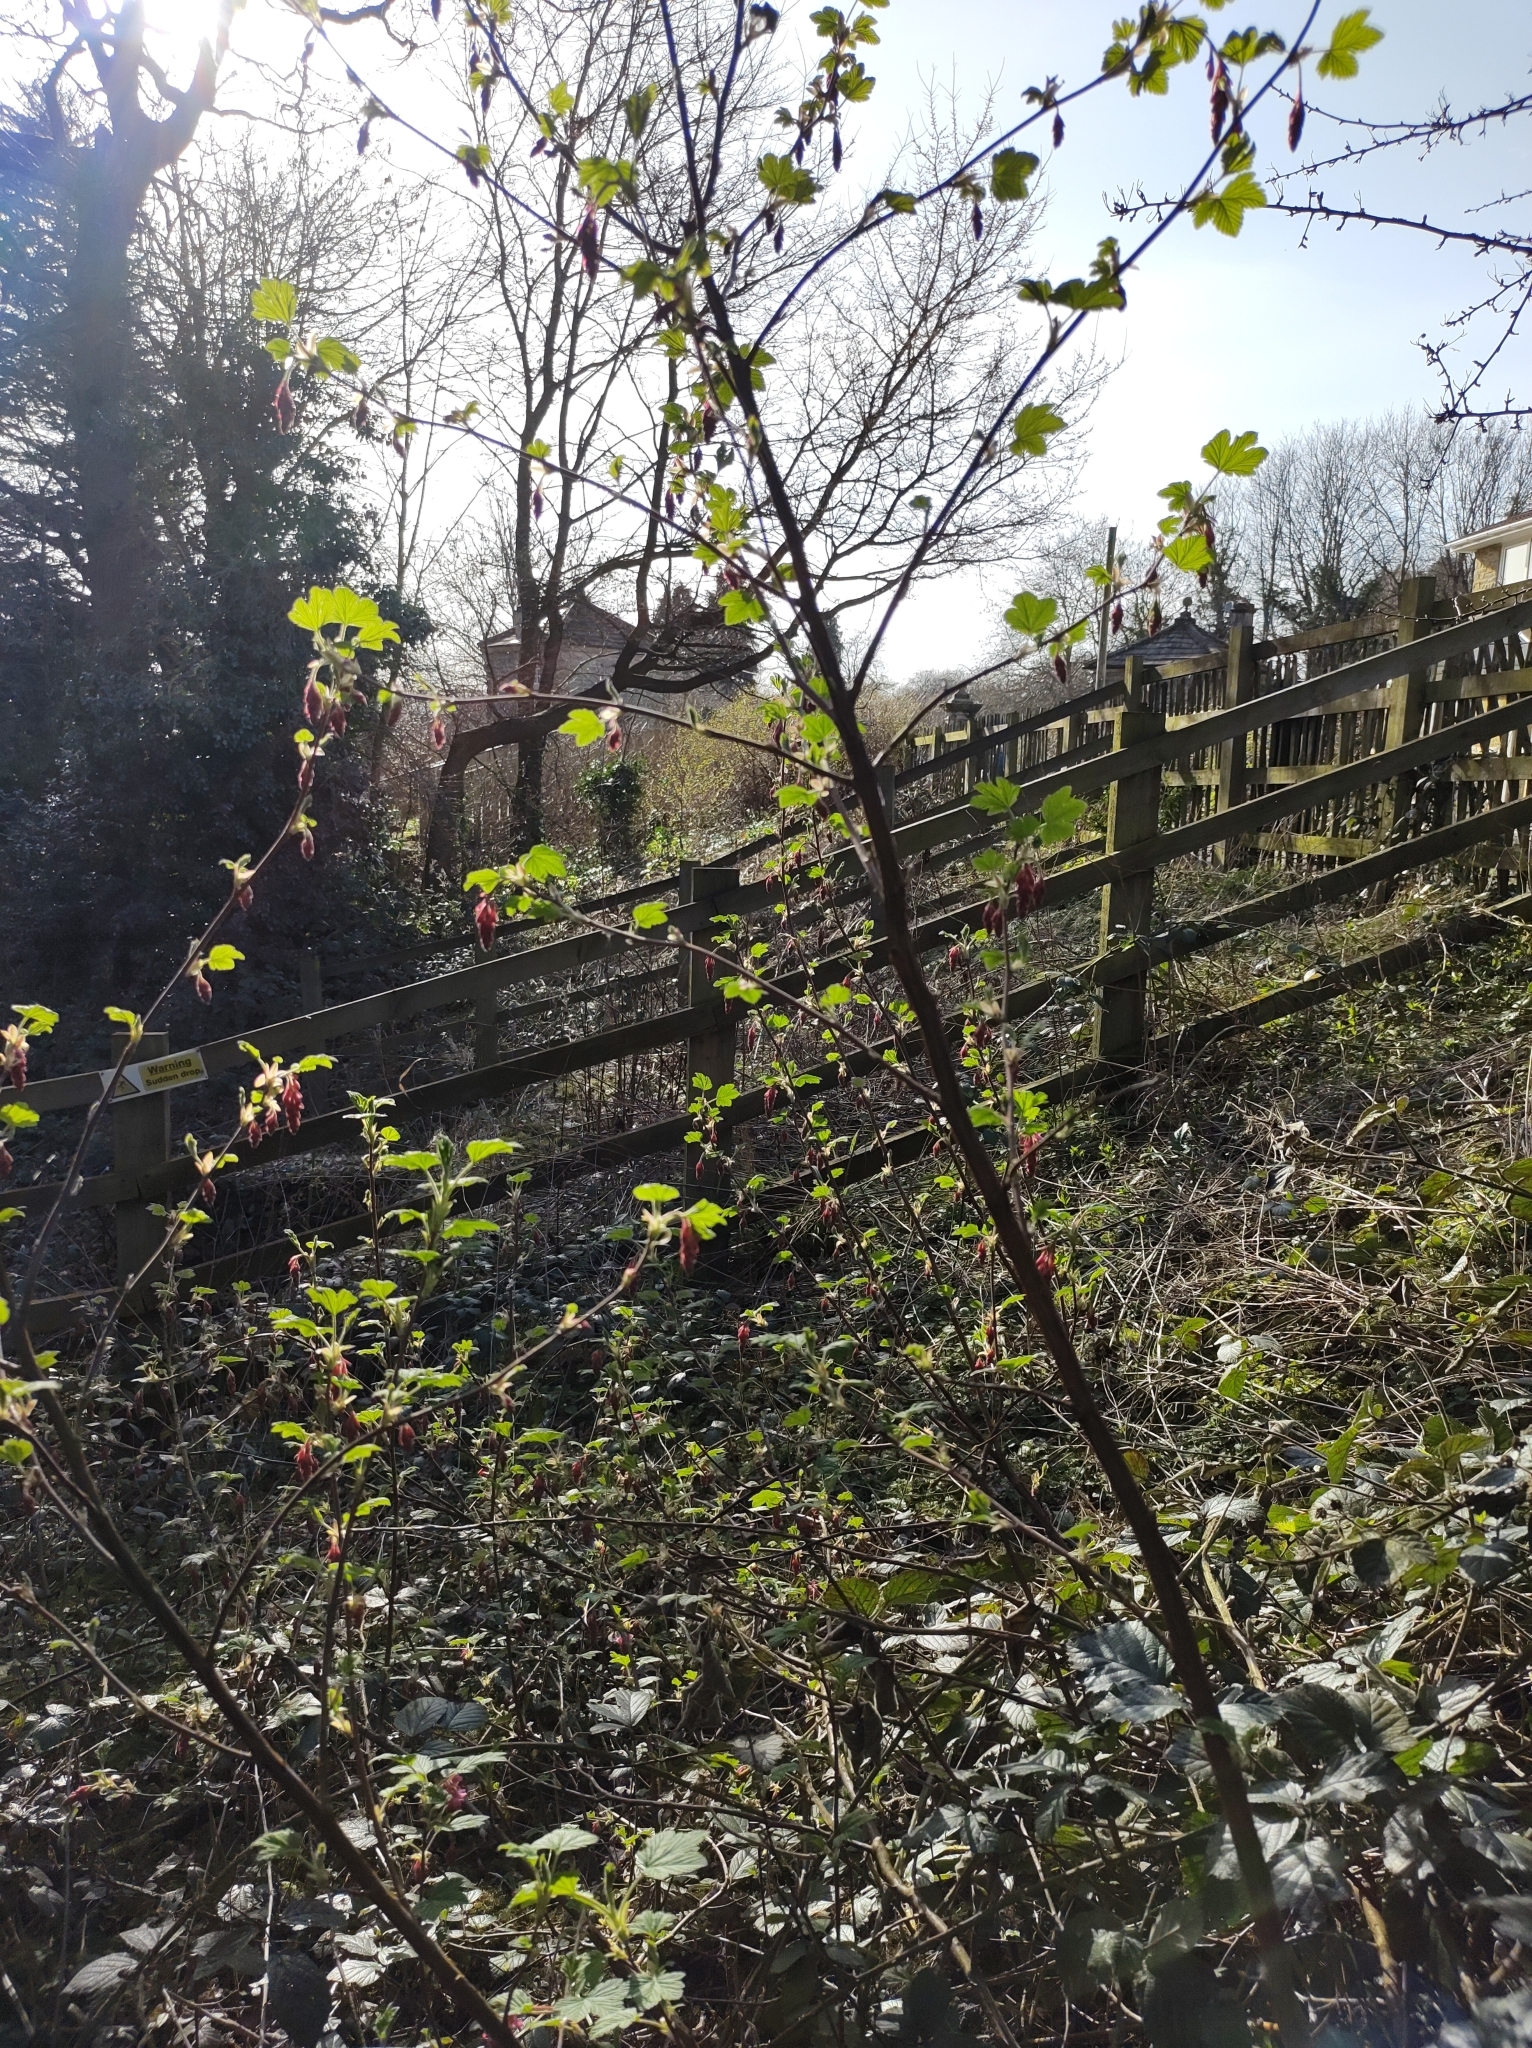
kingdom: Plantae
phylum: Tracheophyta
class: Magnoliopsida
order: Saxifragales
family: Grossulariaceae
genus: Ribes
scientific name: Ribes sanguineum
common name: Flowering currant
